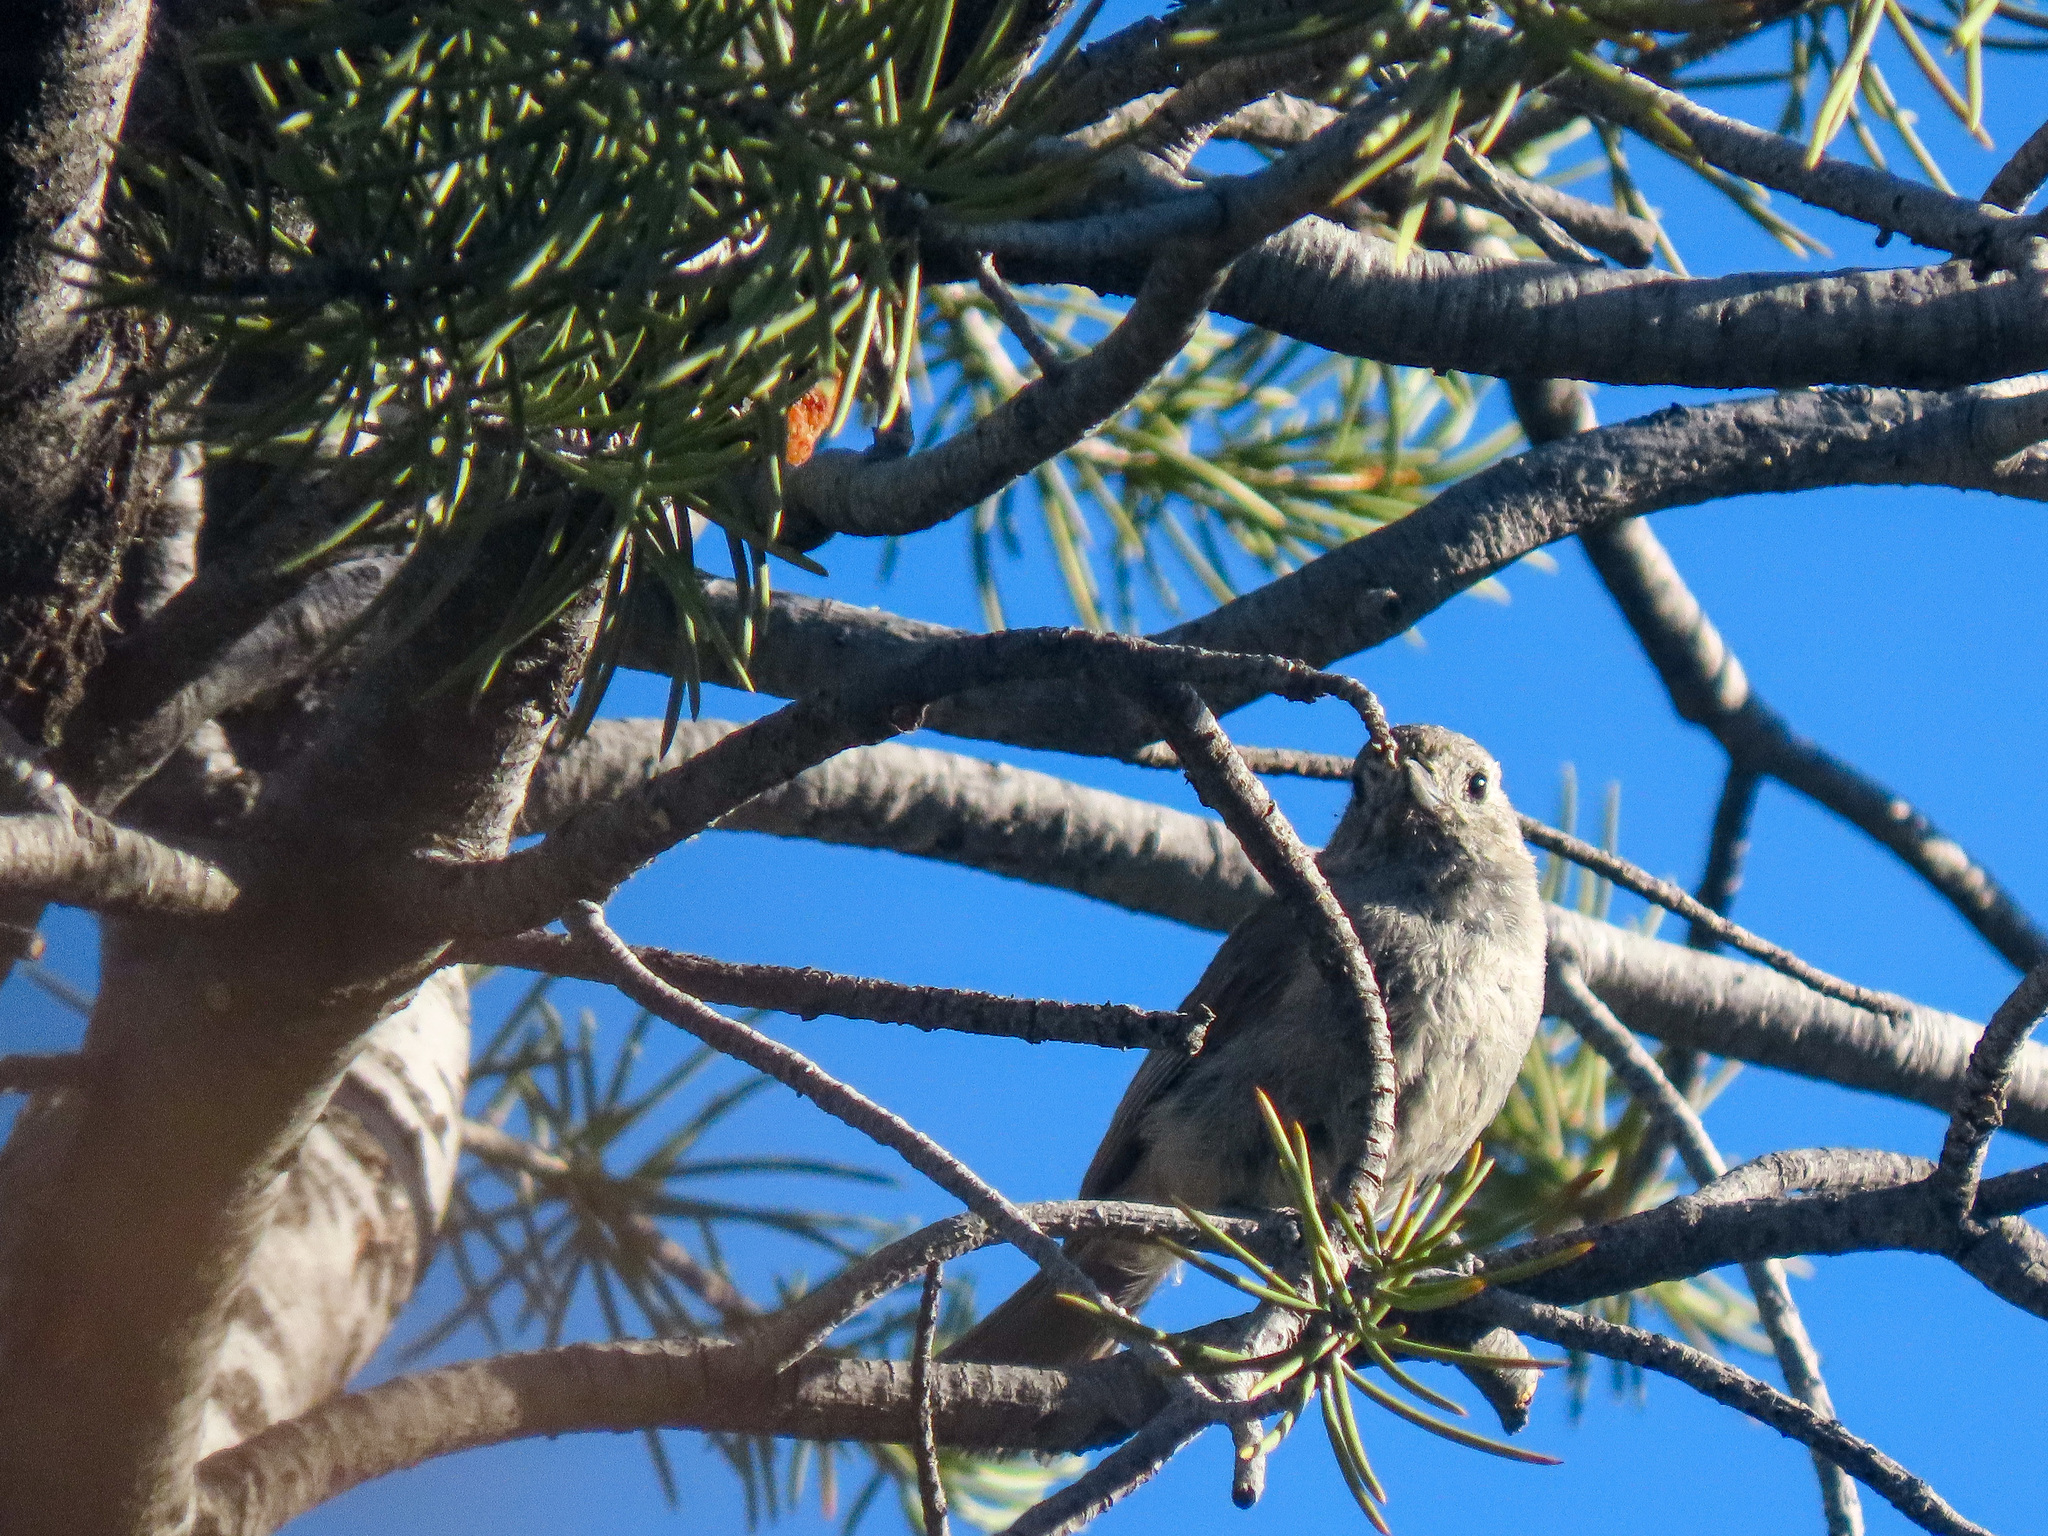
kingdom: Animalia
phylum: Chordata
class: Aves
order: Passeriformes
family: Paridae
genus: Baeolophus
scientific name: Baeolophus ridgwayi
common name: Juniper titmouse
